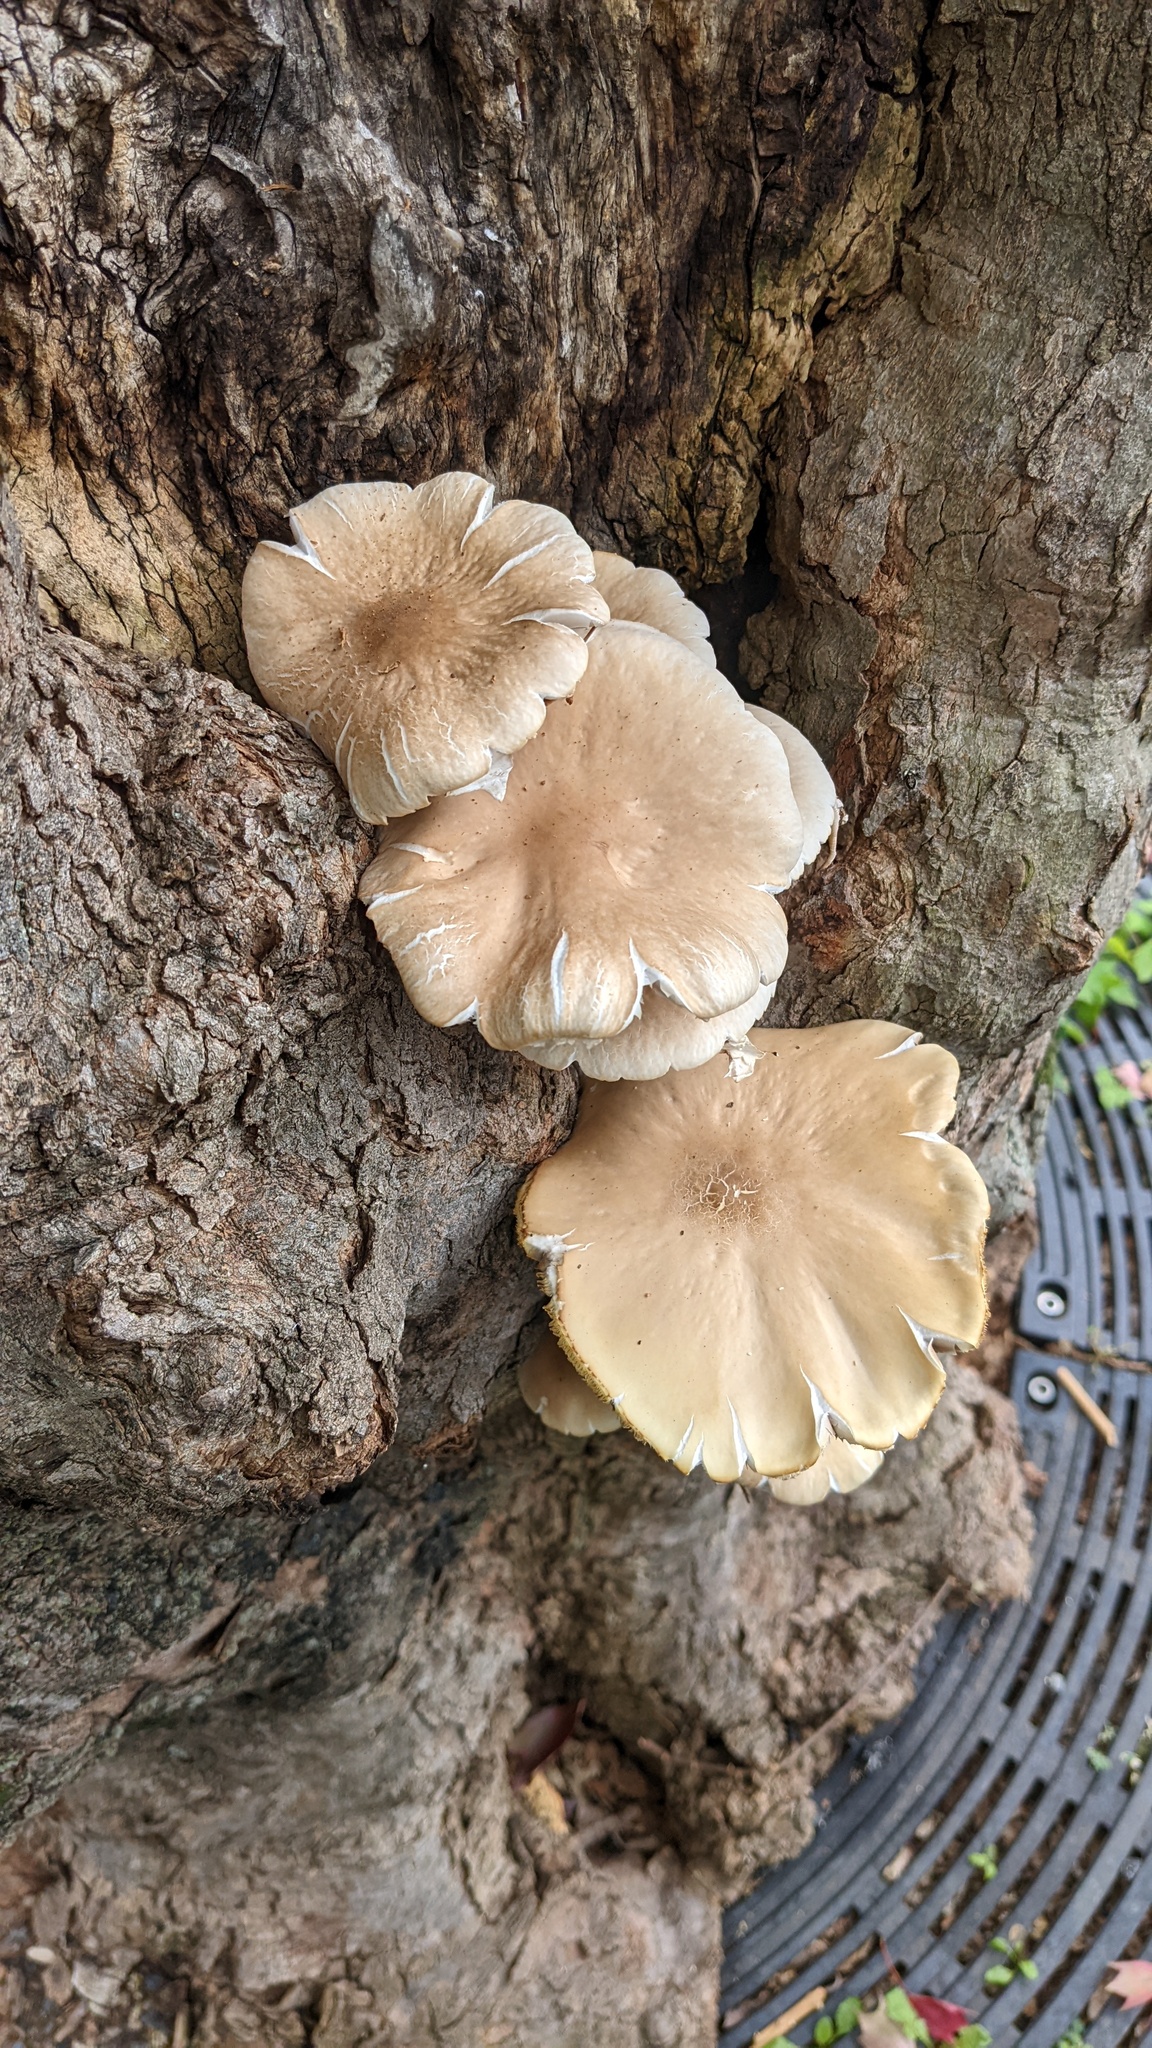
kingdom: Fungi
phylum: Basidiomycota
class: Agaricomycetes
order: Agaricales
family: Tubariaceae
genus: Cyclocybe
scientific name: Cyclocybe cylindracea
